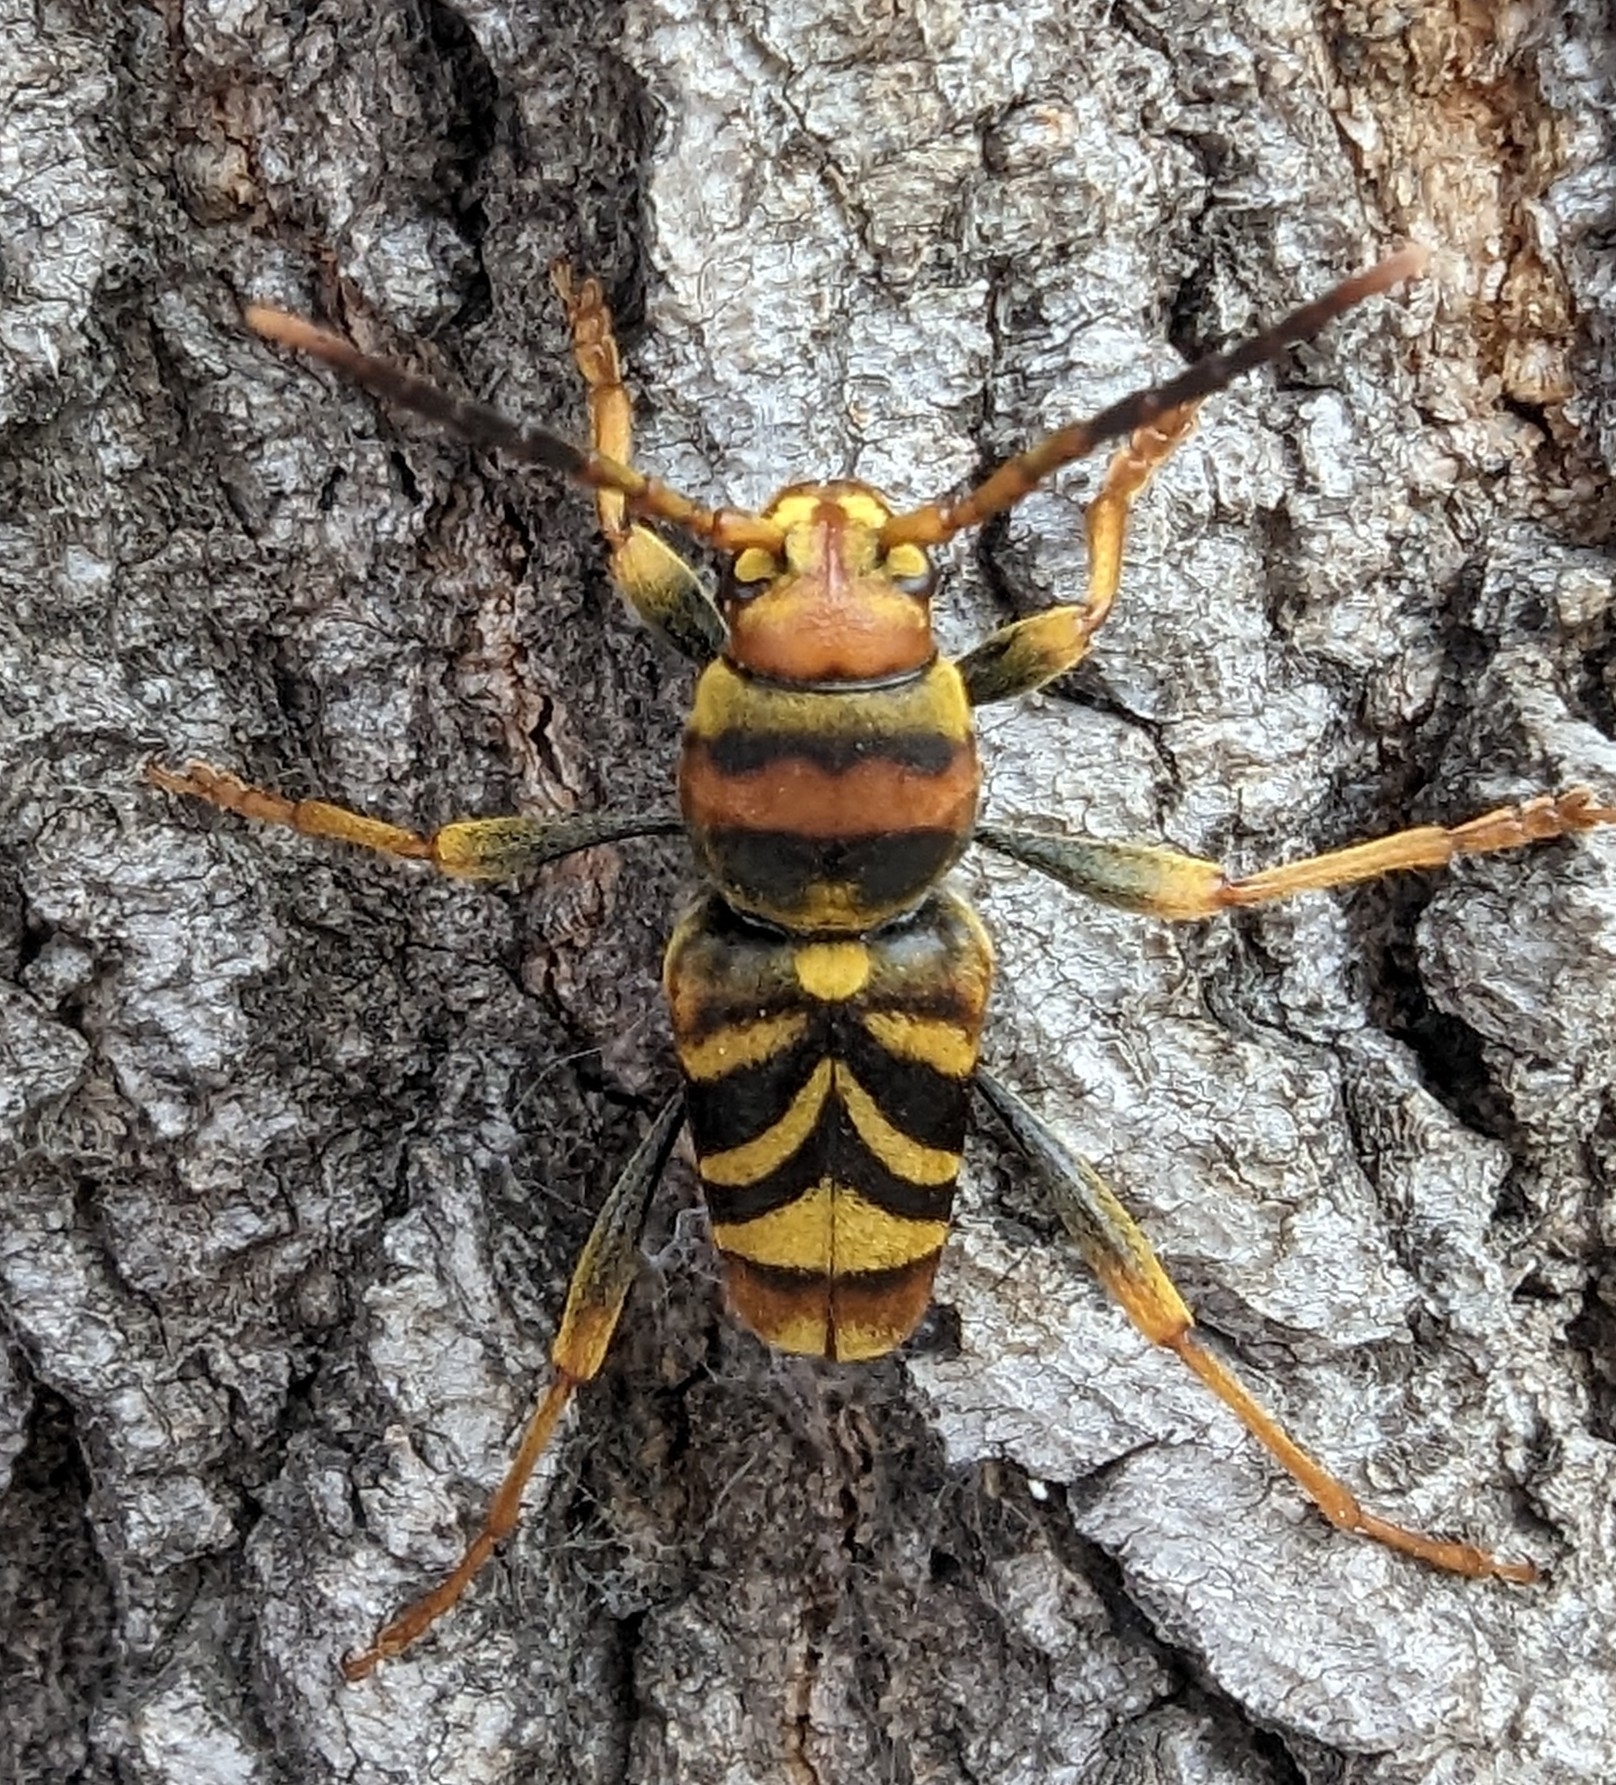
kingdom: Animalia
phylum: Arthropoda
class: Insecta
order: Coleoptera
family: Cerambycidae
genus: Xylotrechus
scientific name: Xylotrechus chinensis
